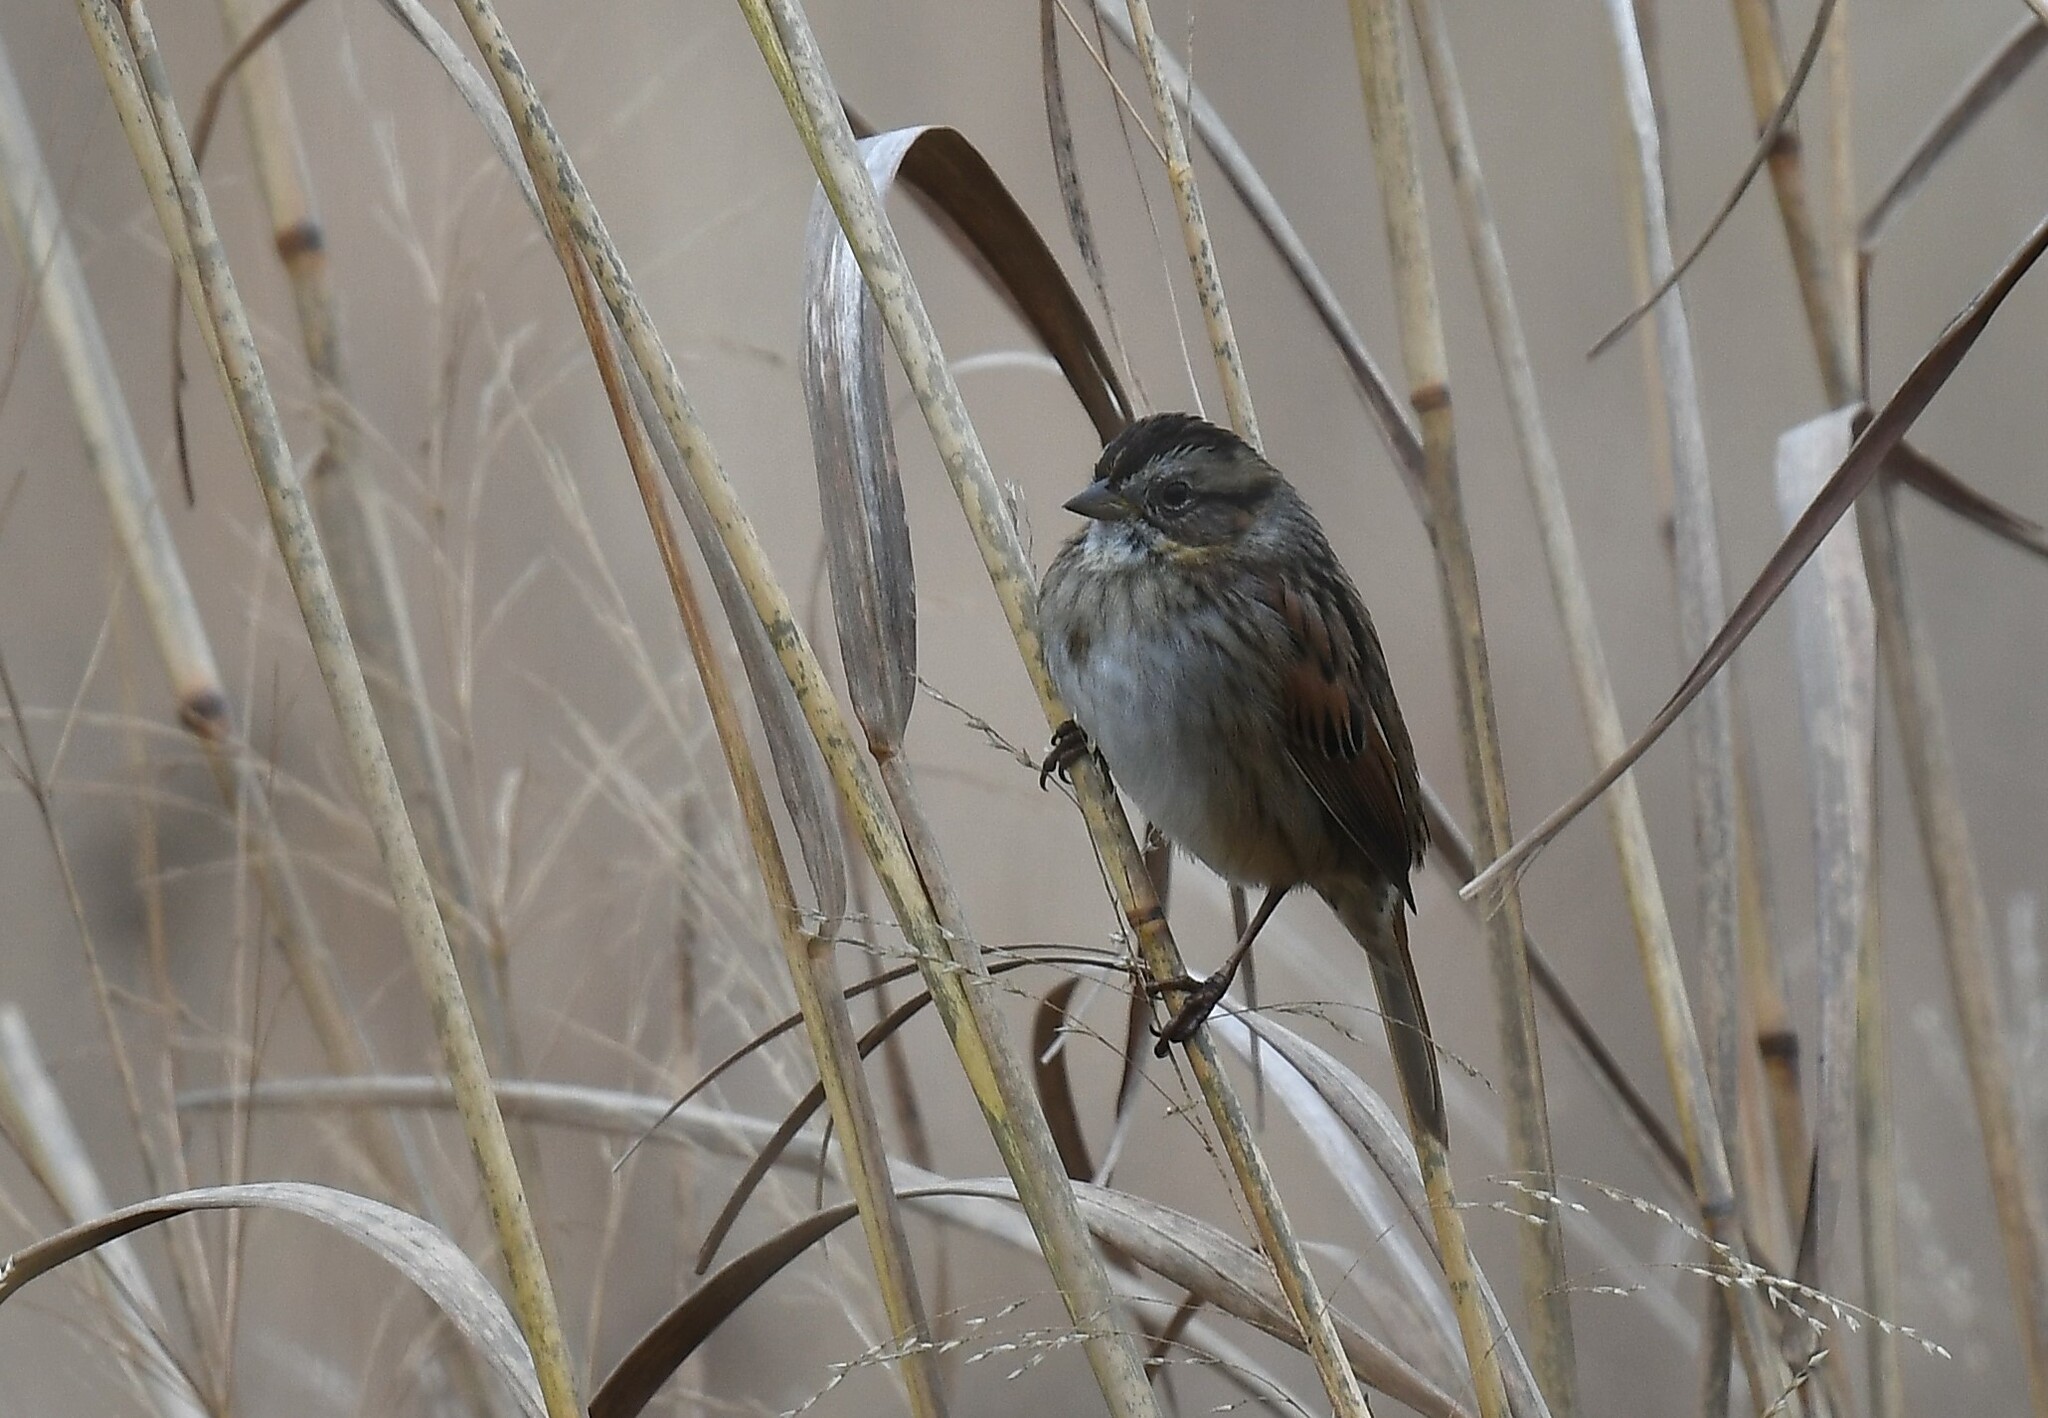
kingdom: Animalia
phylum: Chordata
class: Aves
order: Passeriformes
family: Passerellidae
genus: Melospiza
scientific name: Melospiza georgiana
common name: Swamp sparrow
